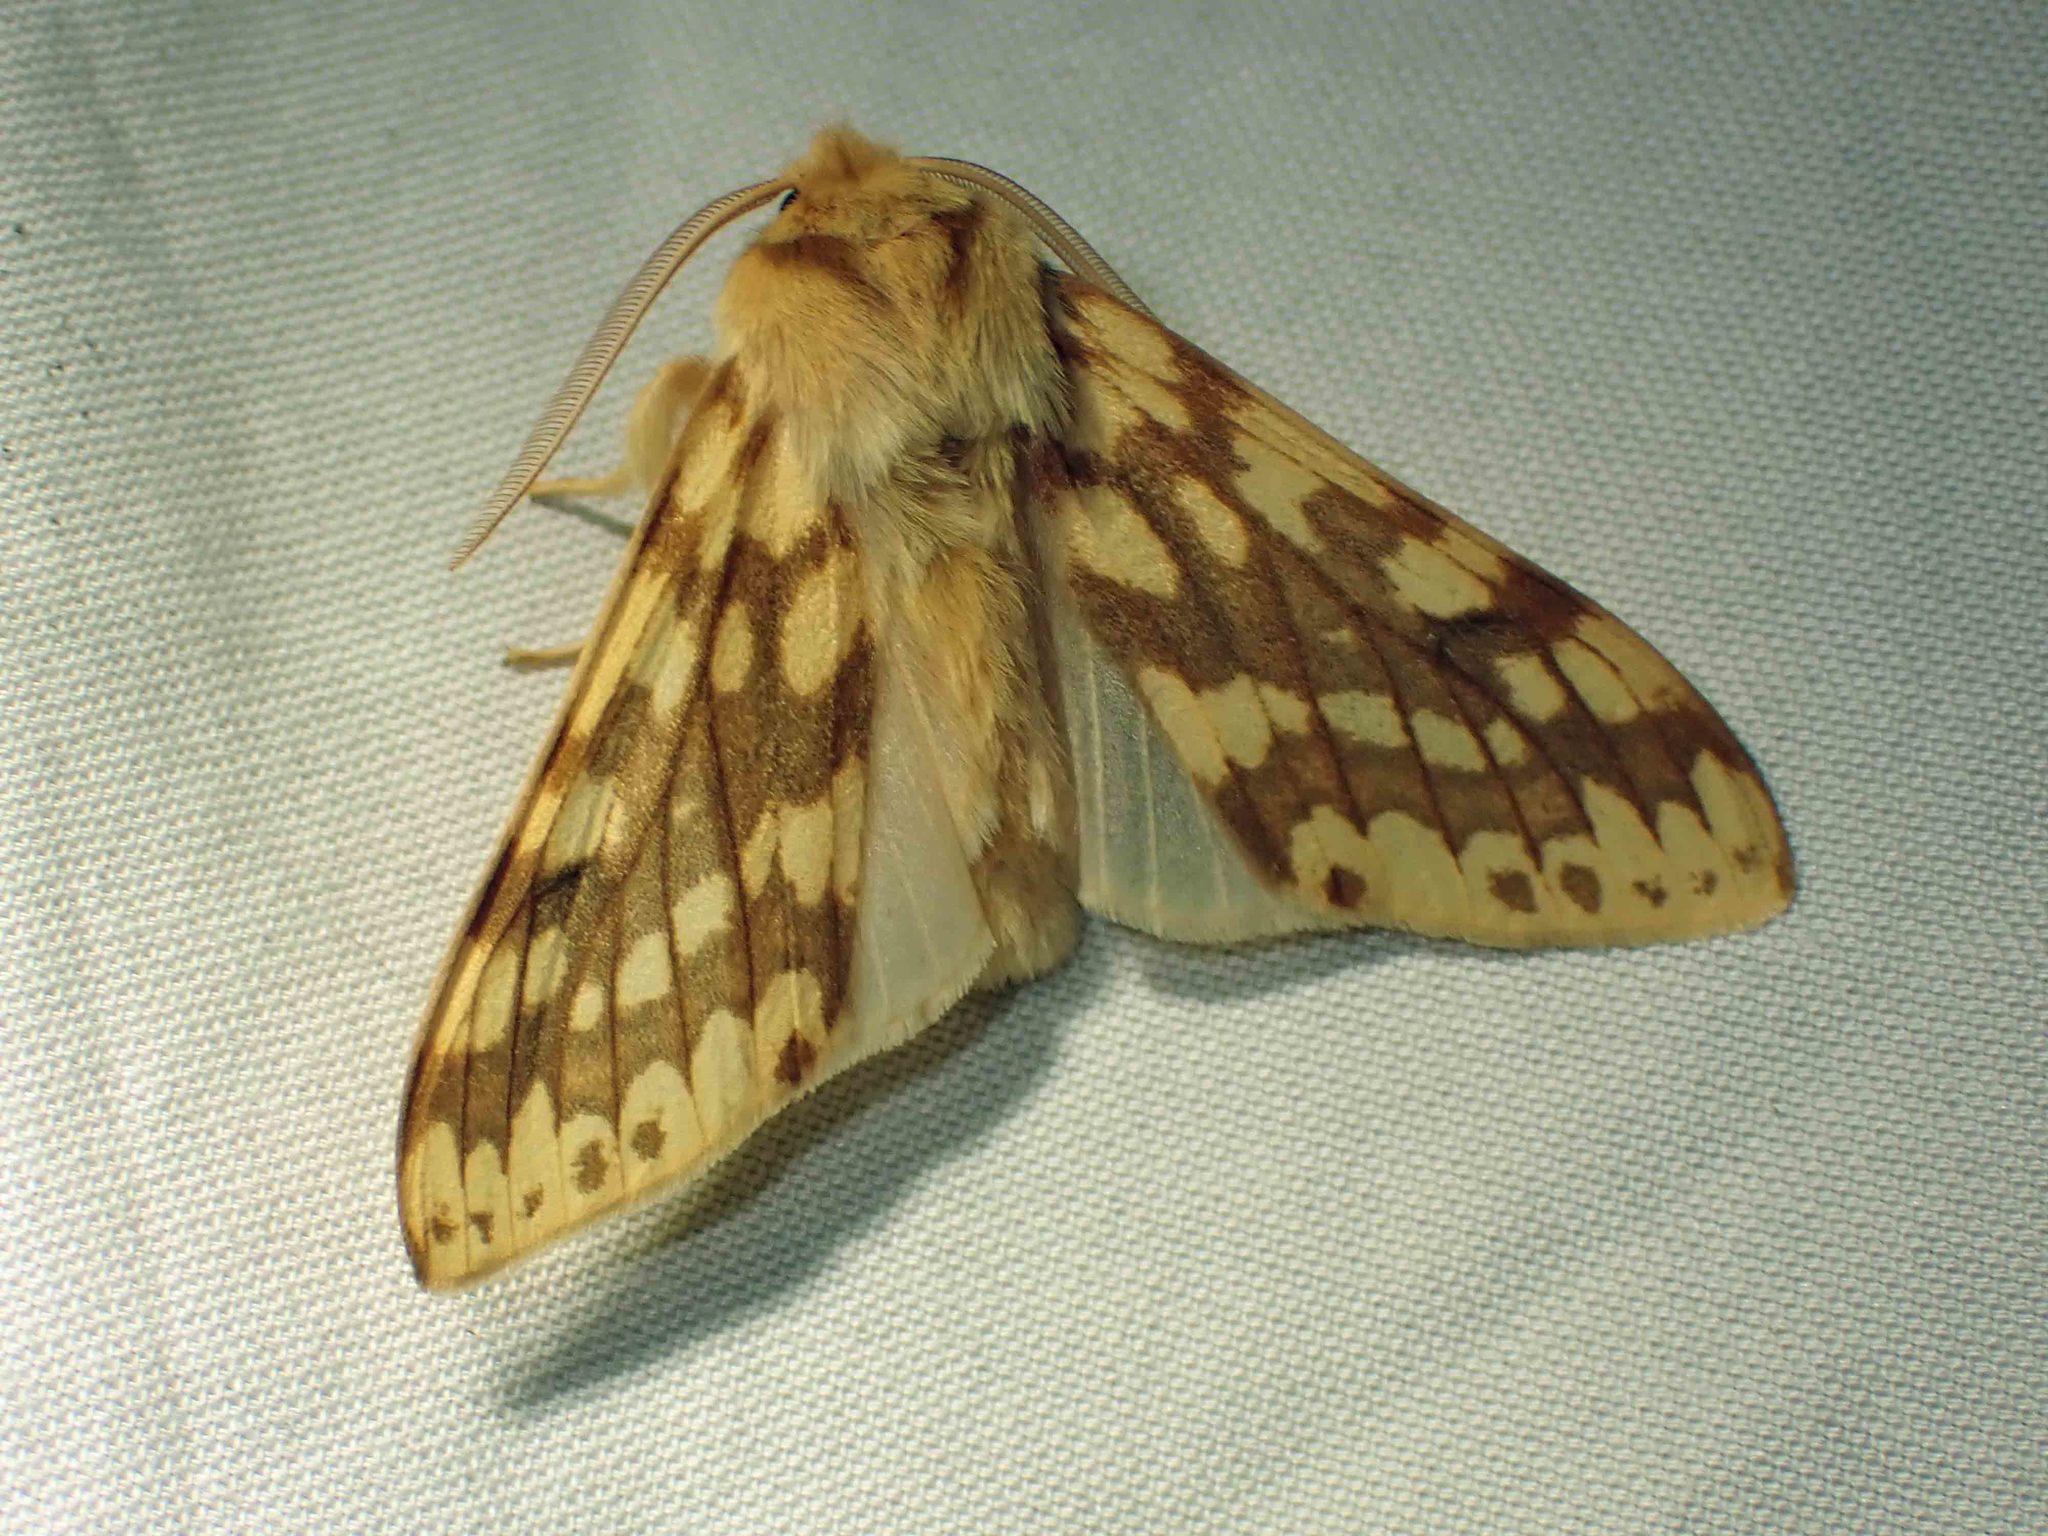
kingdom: Animalia
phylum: Arthropoda
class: Insecta
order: Lepidoptera
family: Erebidae
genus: Lophocampa
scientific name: Lophocampa maculata
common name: Spotted tussock moth
